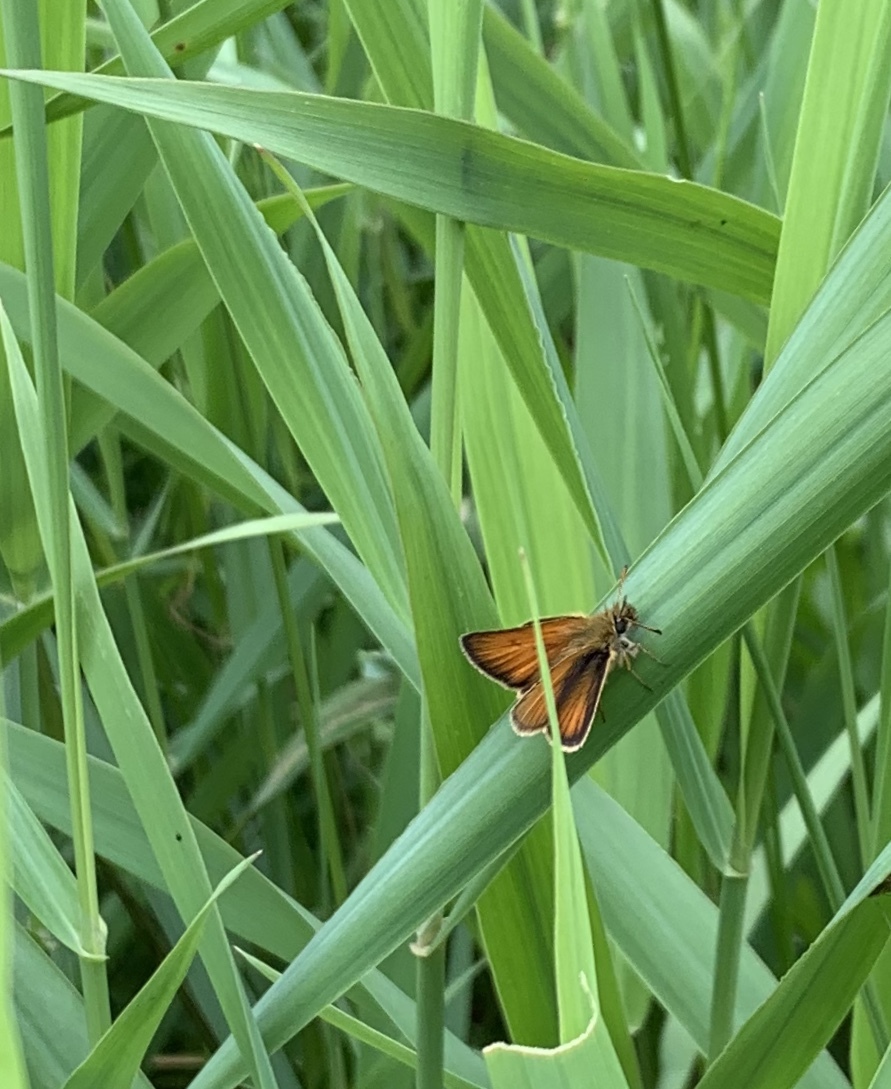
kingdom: Animalia
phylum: Arthropoda
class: Insecta
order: Lepidoptera
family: Hesperiidae
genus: Thymelicus
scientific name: Thymelicus lineola
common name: Essex skipper
